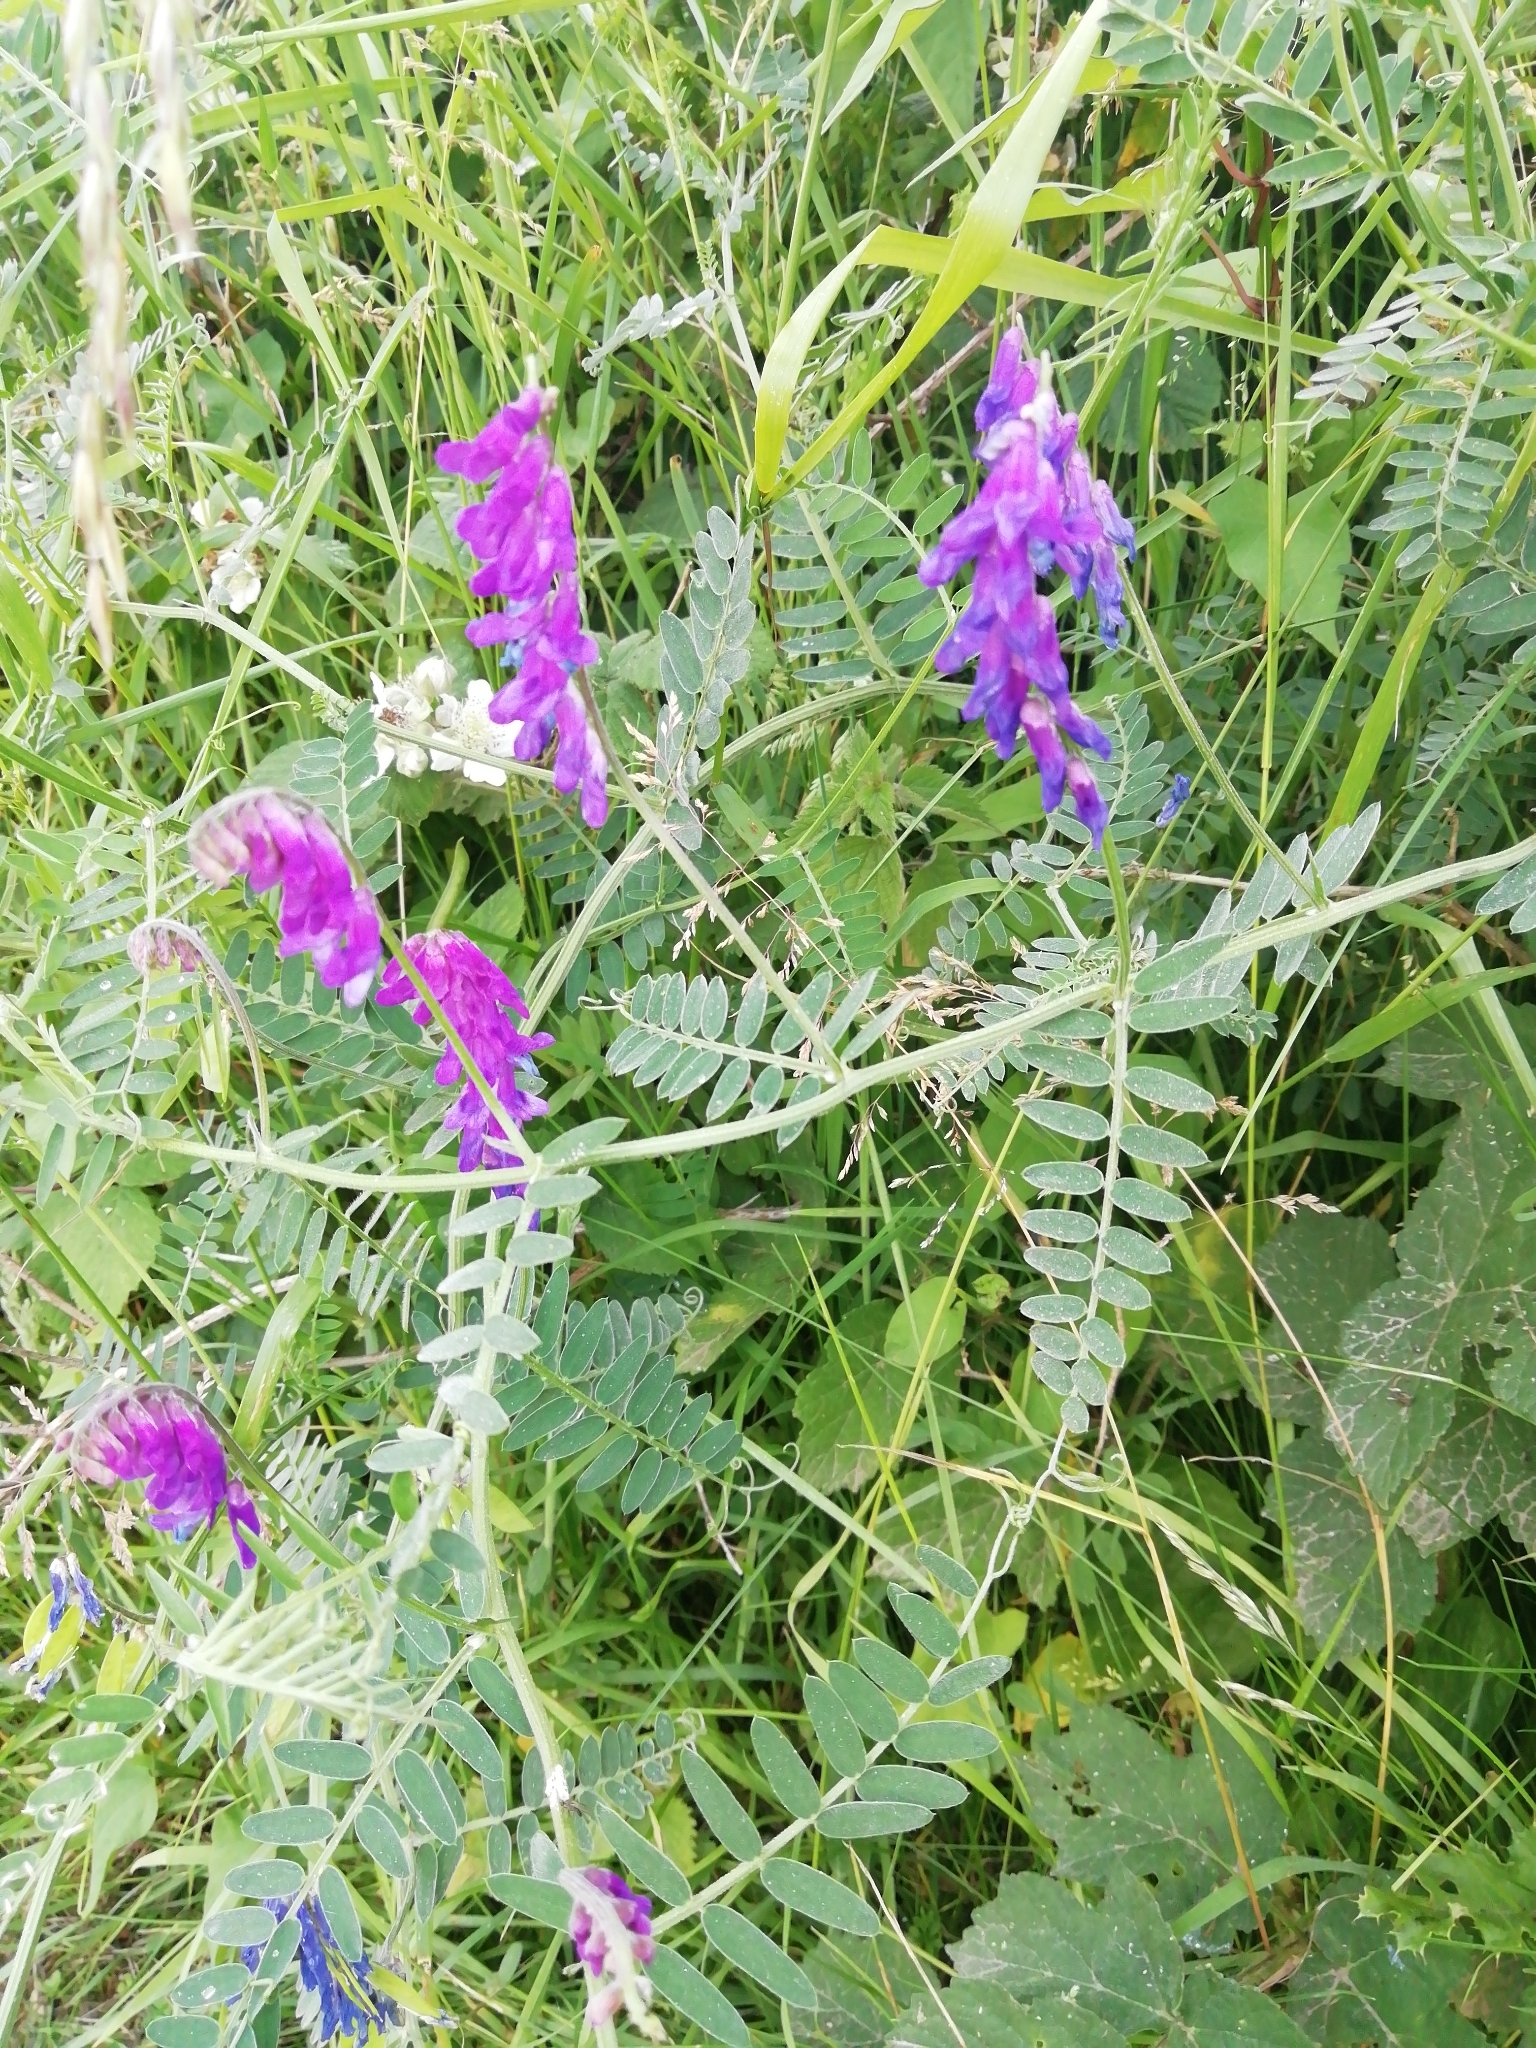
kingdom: Plantae
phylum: Tracheophyta
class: Magnoliopsida
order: Fabales
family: Fabaceae
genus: Vicia
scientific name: Vicia cracca
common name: Bird vetch
